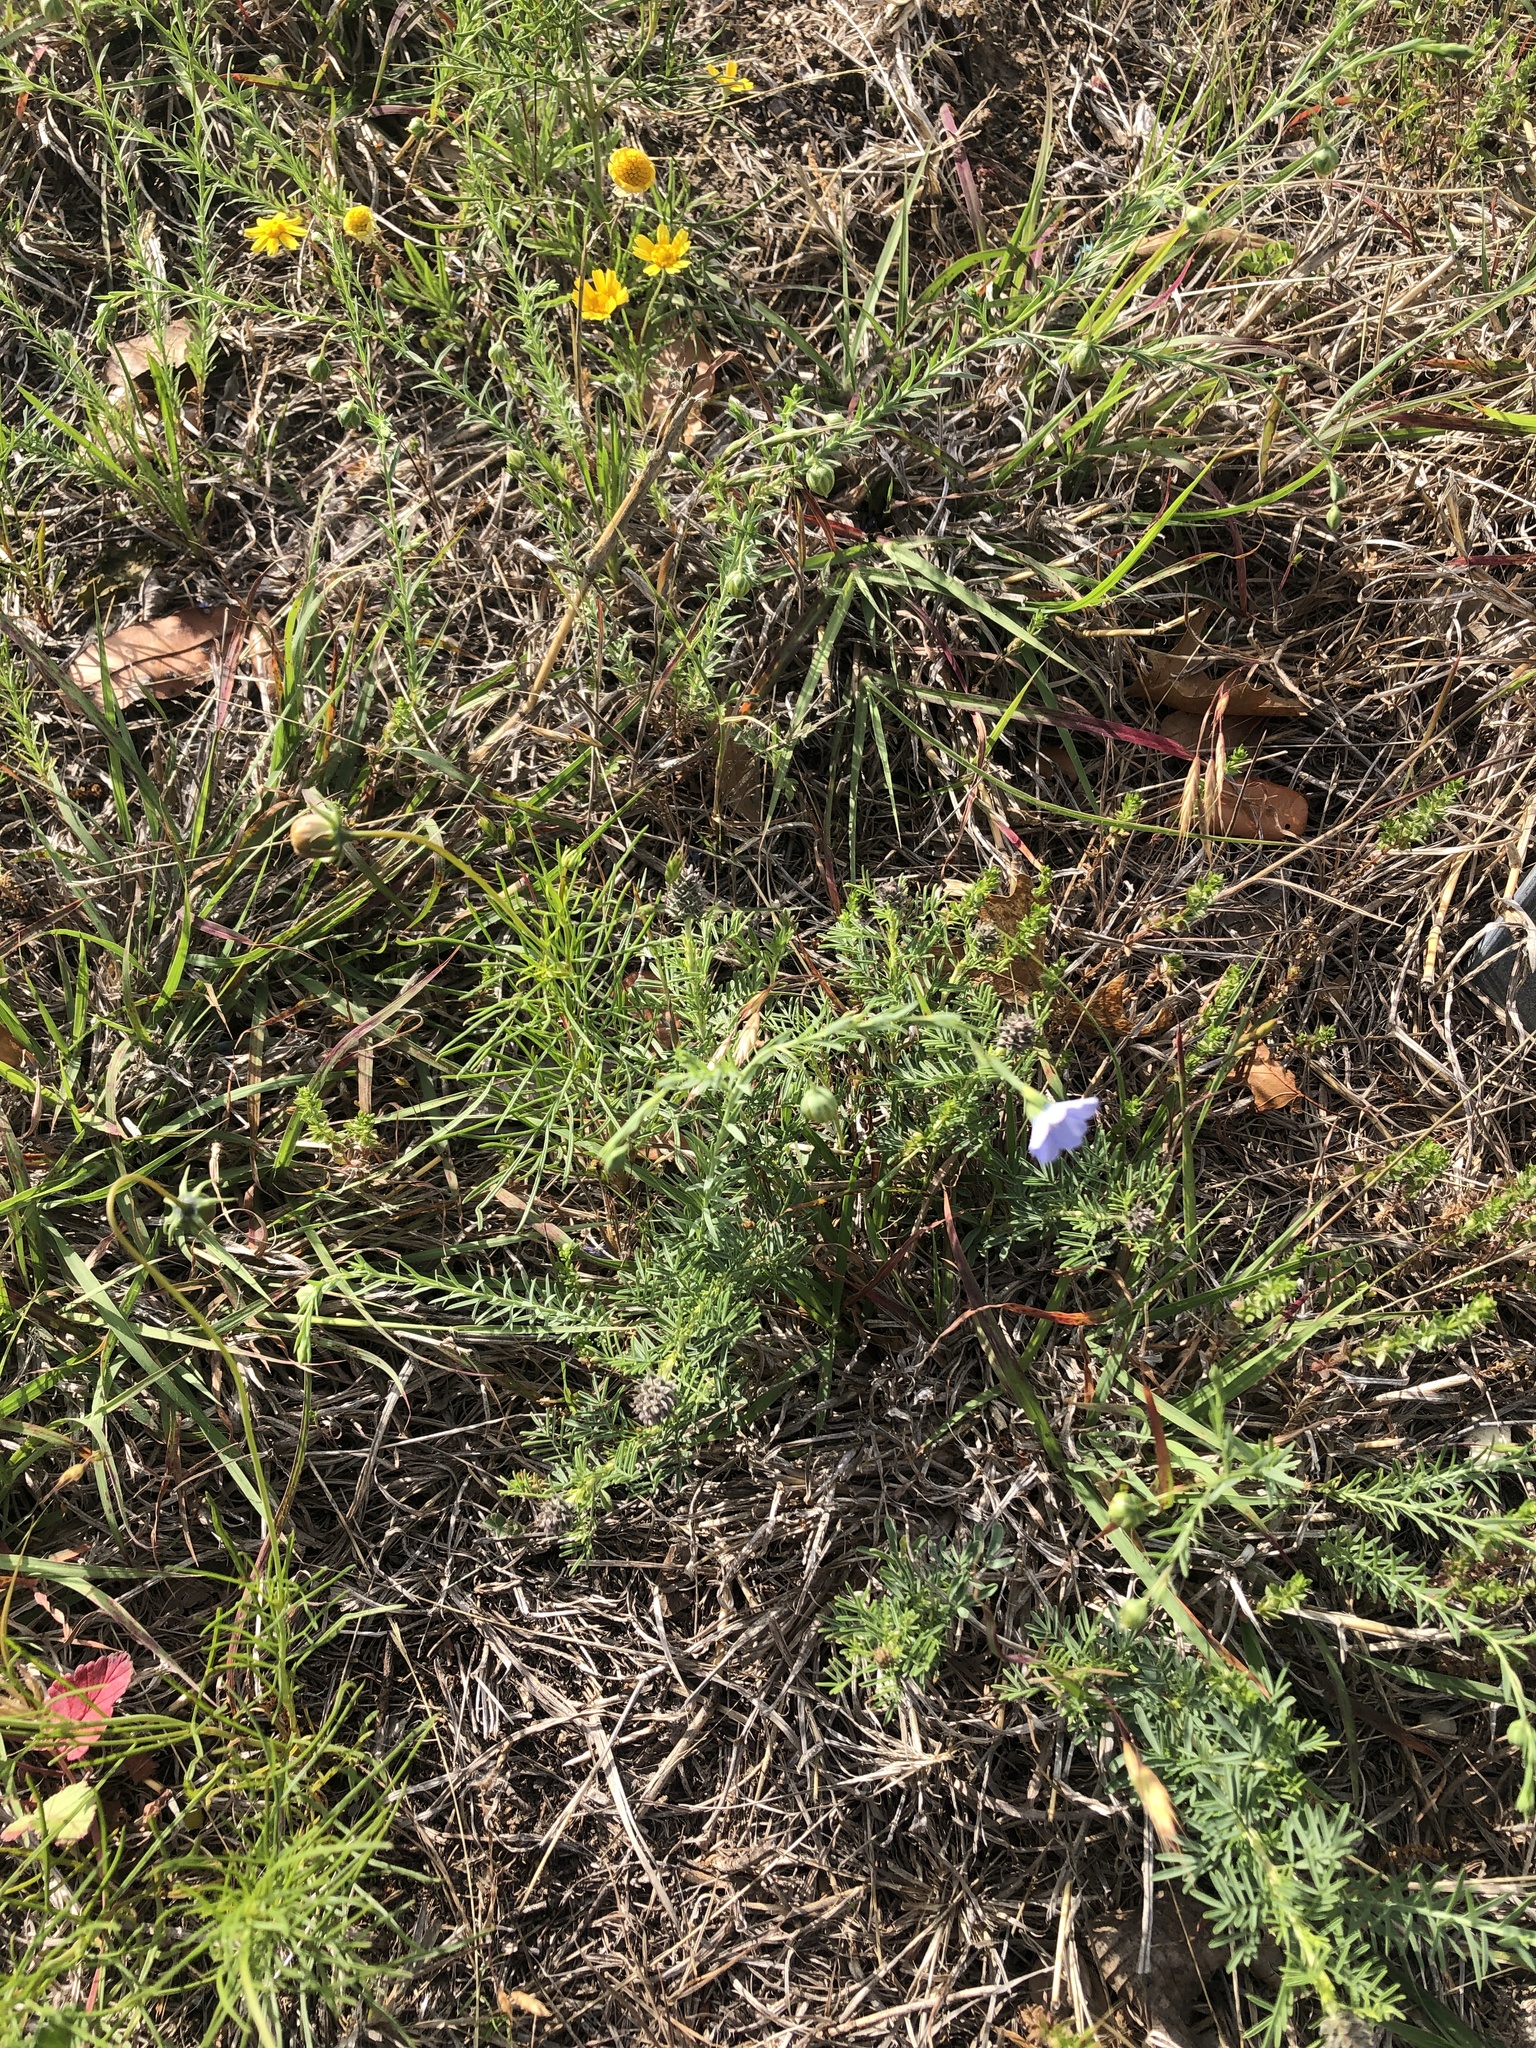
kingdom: Plantae
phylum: Tracheophyta
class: Magnoliopsida
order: Malpighiales
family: Linaceae
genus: Linum
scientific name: Linum pratense
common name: Norton's flax
